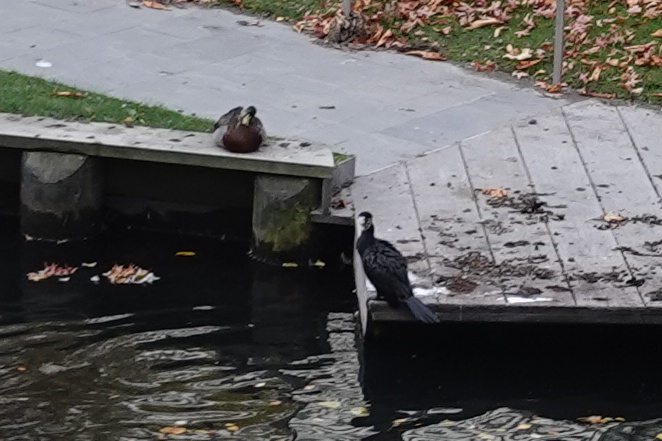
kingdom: Animalia
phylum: Chordata
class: Aves
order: Suliformes
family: Phalacrocoracidae
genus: Microcarbo
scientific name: Microcarbo melanoleucos
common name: Little pied cormorant
